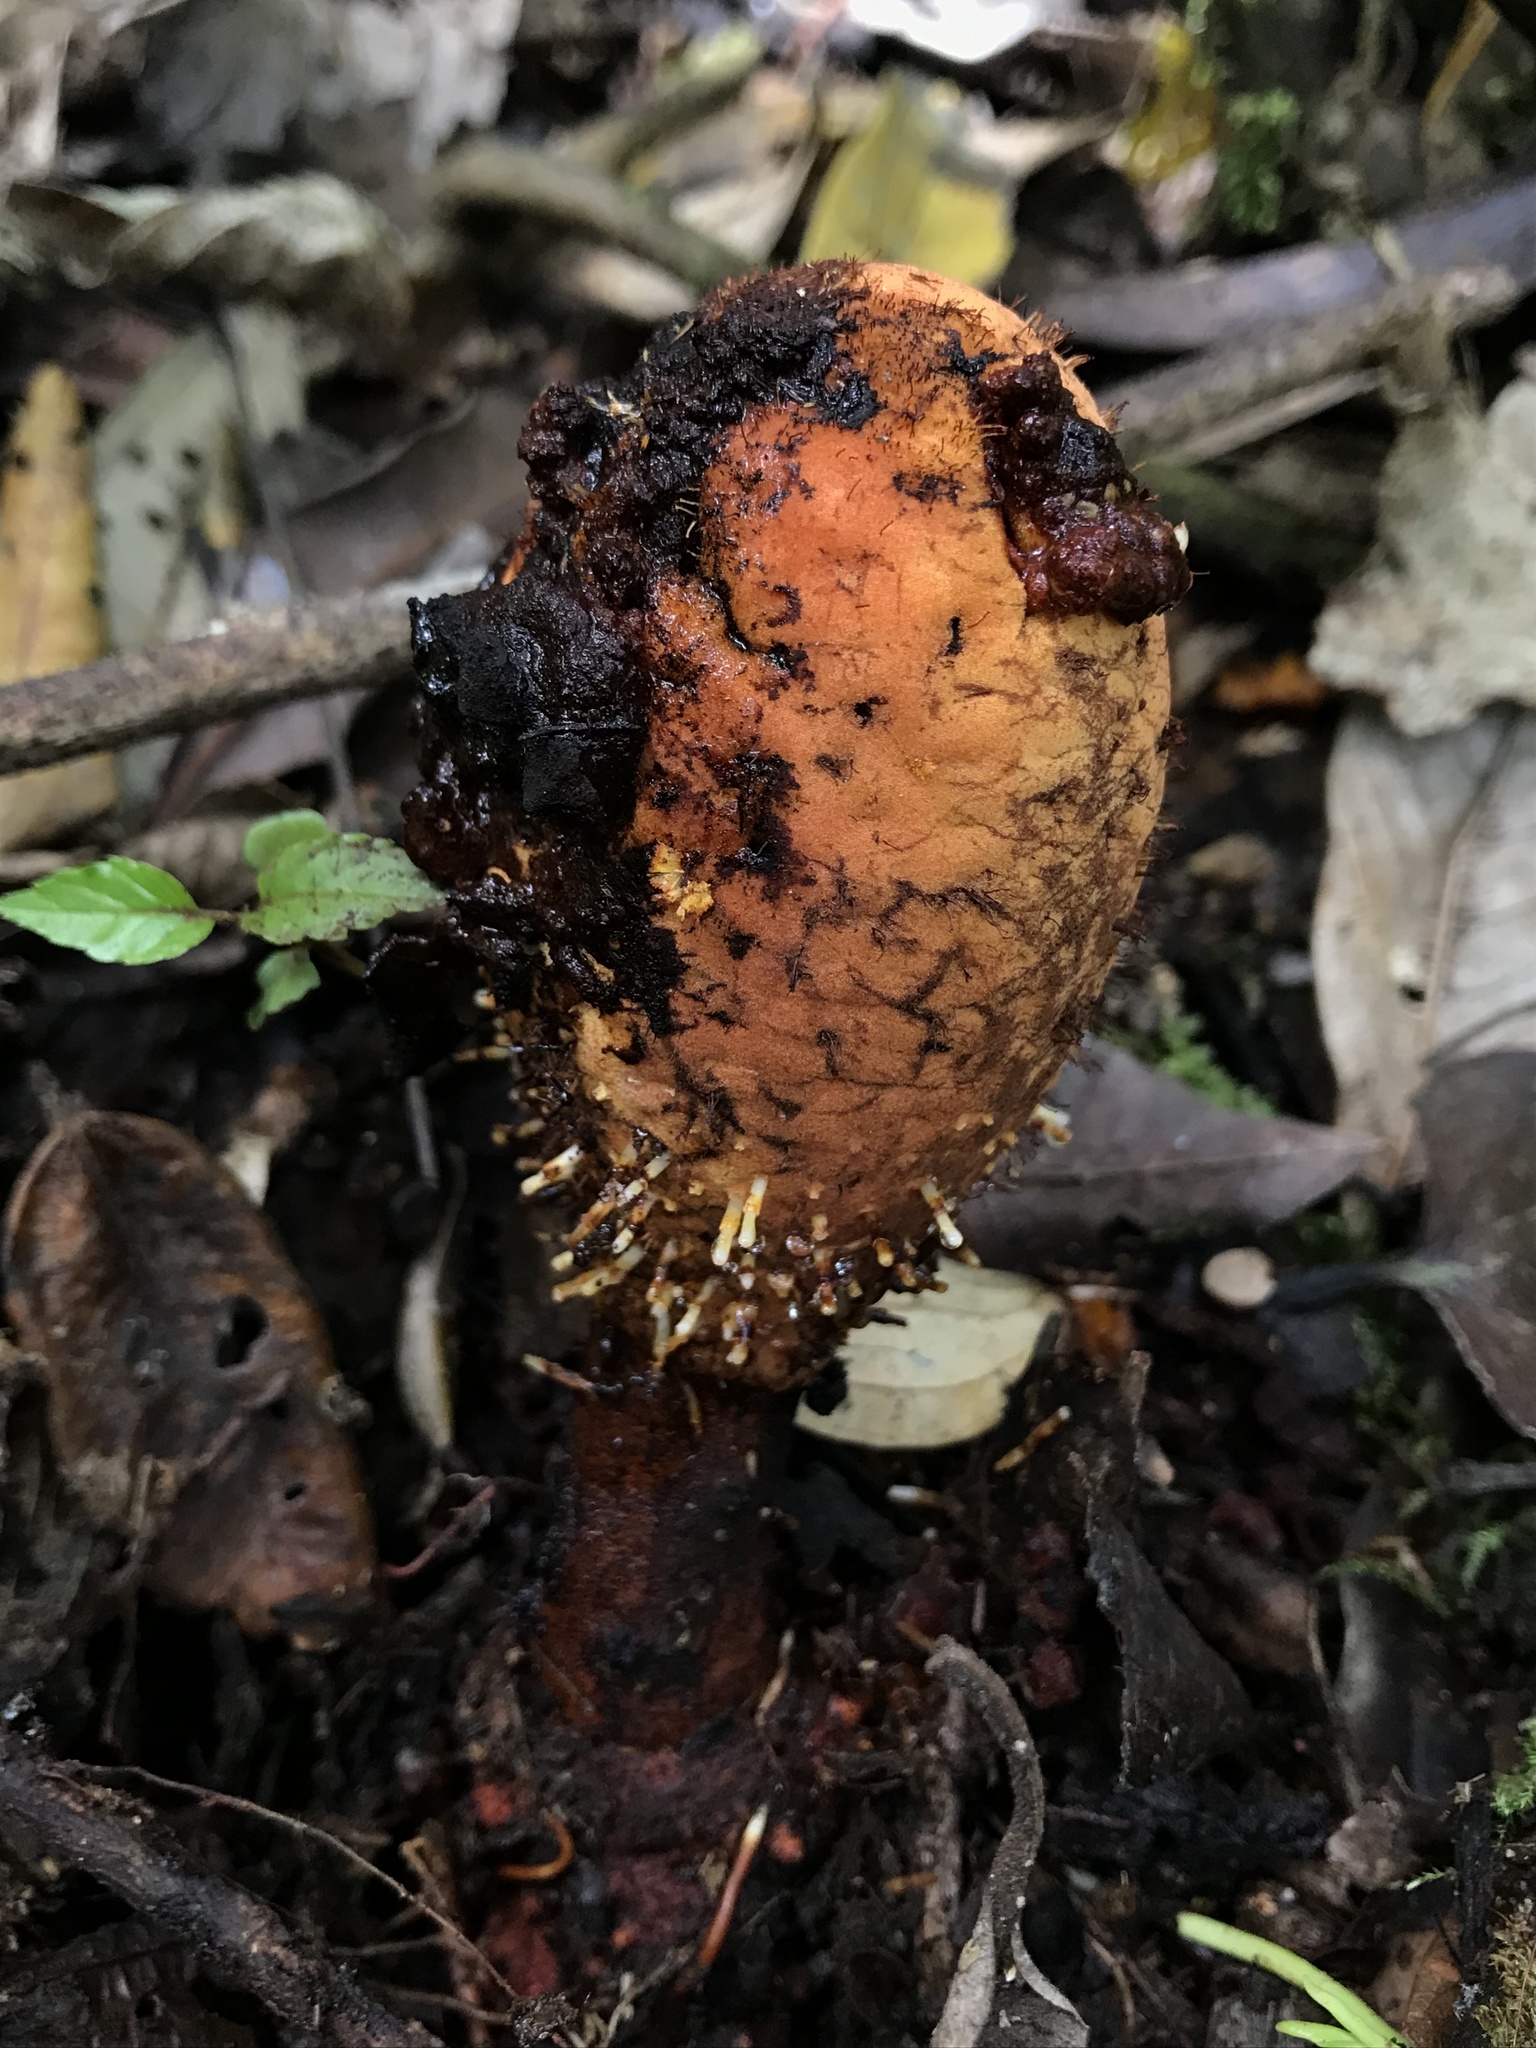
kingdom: Plantae
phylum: Tracheophyta
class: Magnoliopsida
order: Santalales
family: Balanophoraceae
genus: Corynaea
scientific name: Corynaea crassa
